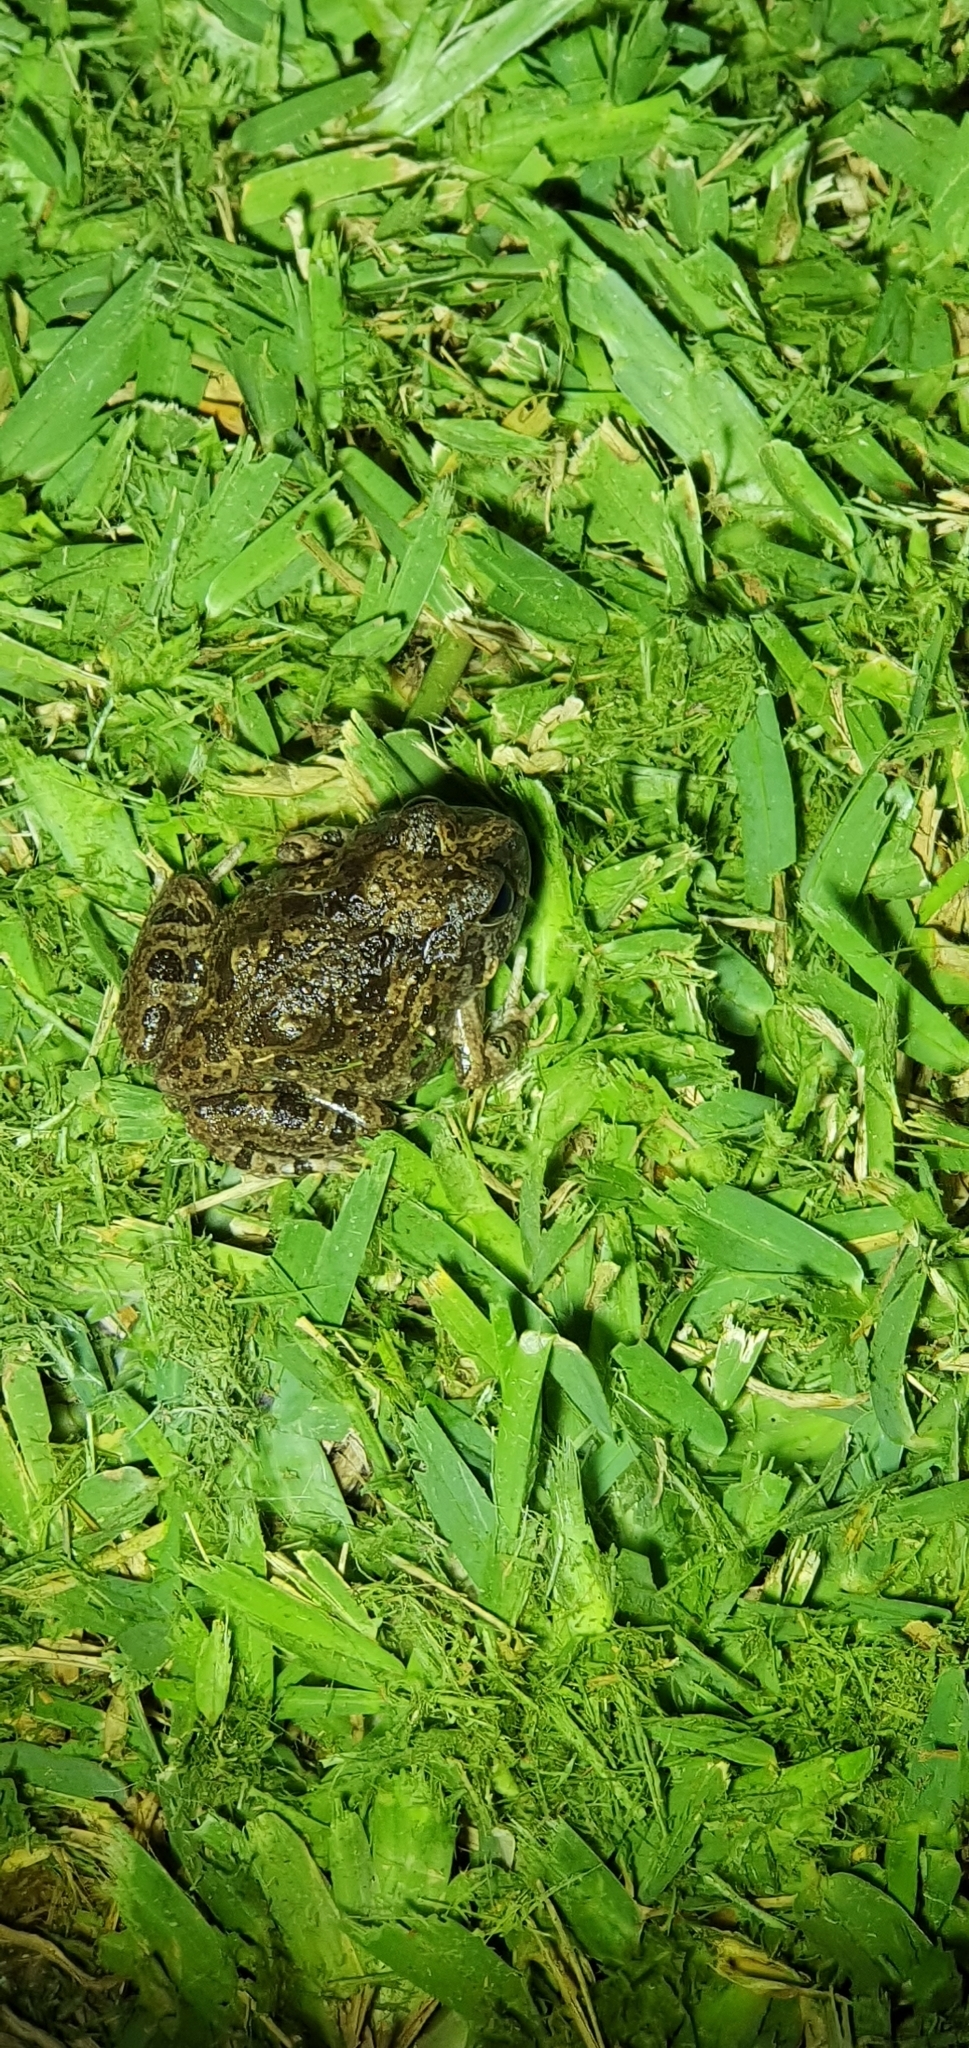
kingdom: Animalia
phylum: Chordata
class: Amphibia
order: Anura
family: Limnodynastidae
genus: Platyplectrum
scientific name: Platyplectrum ornatum
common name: Ornate burrowing frog
